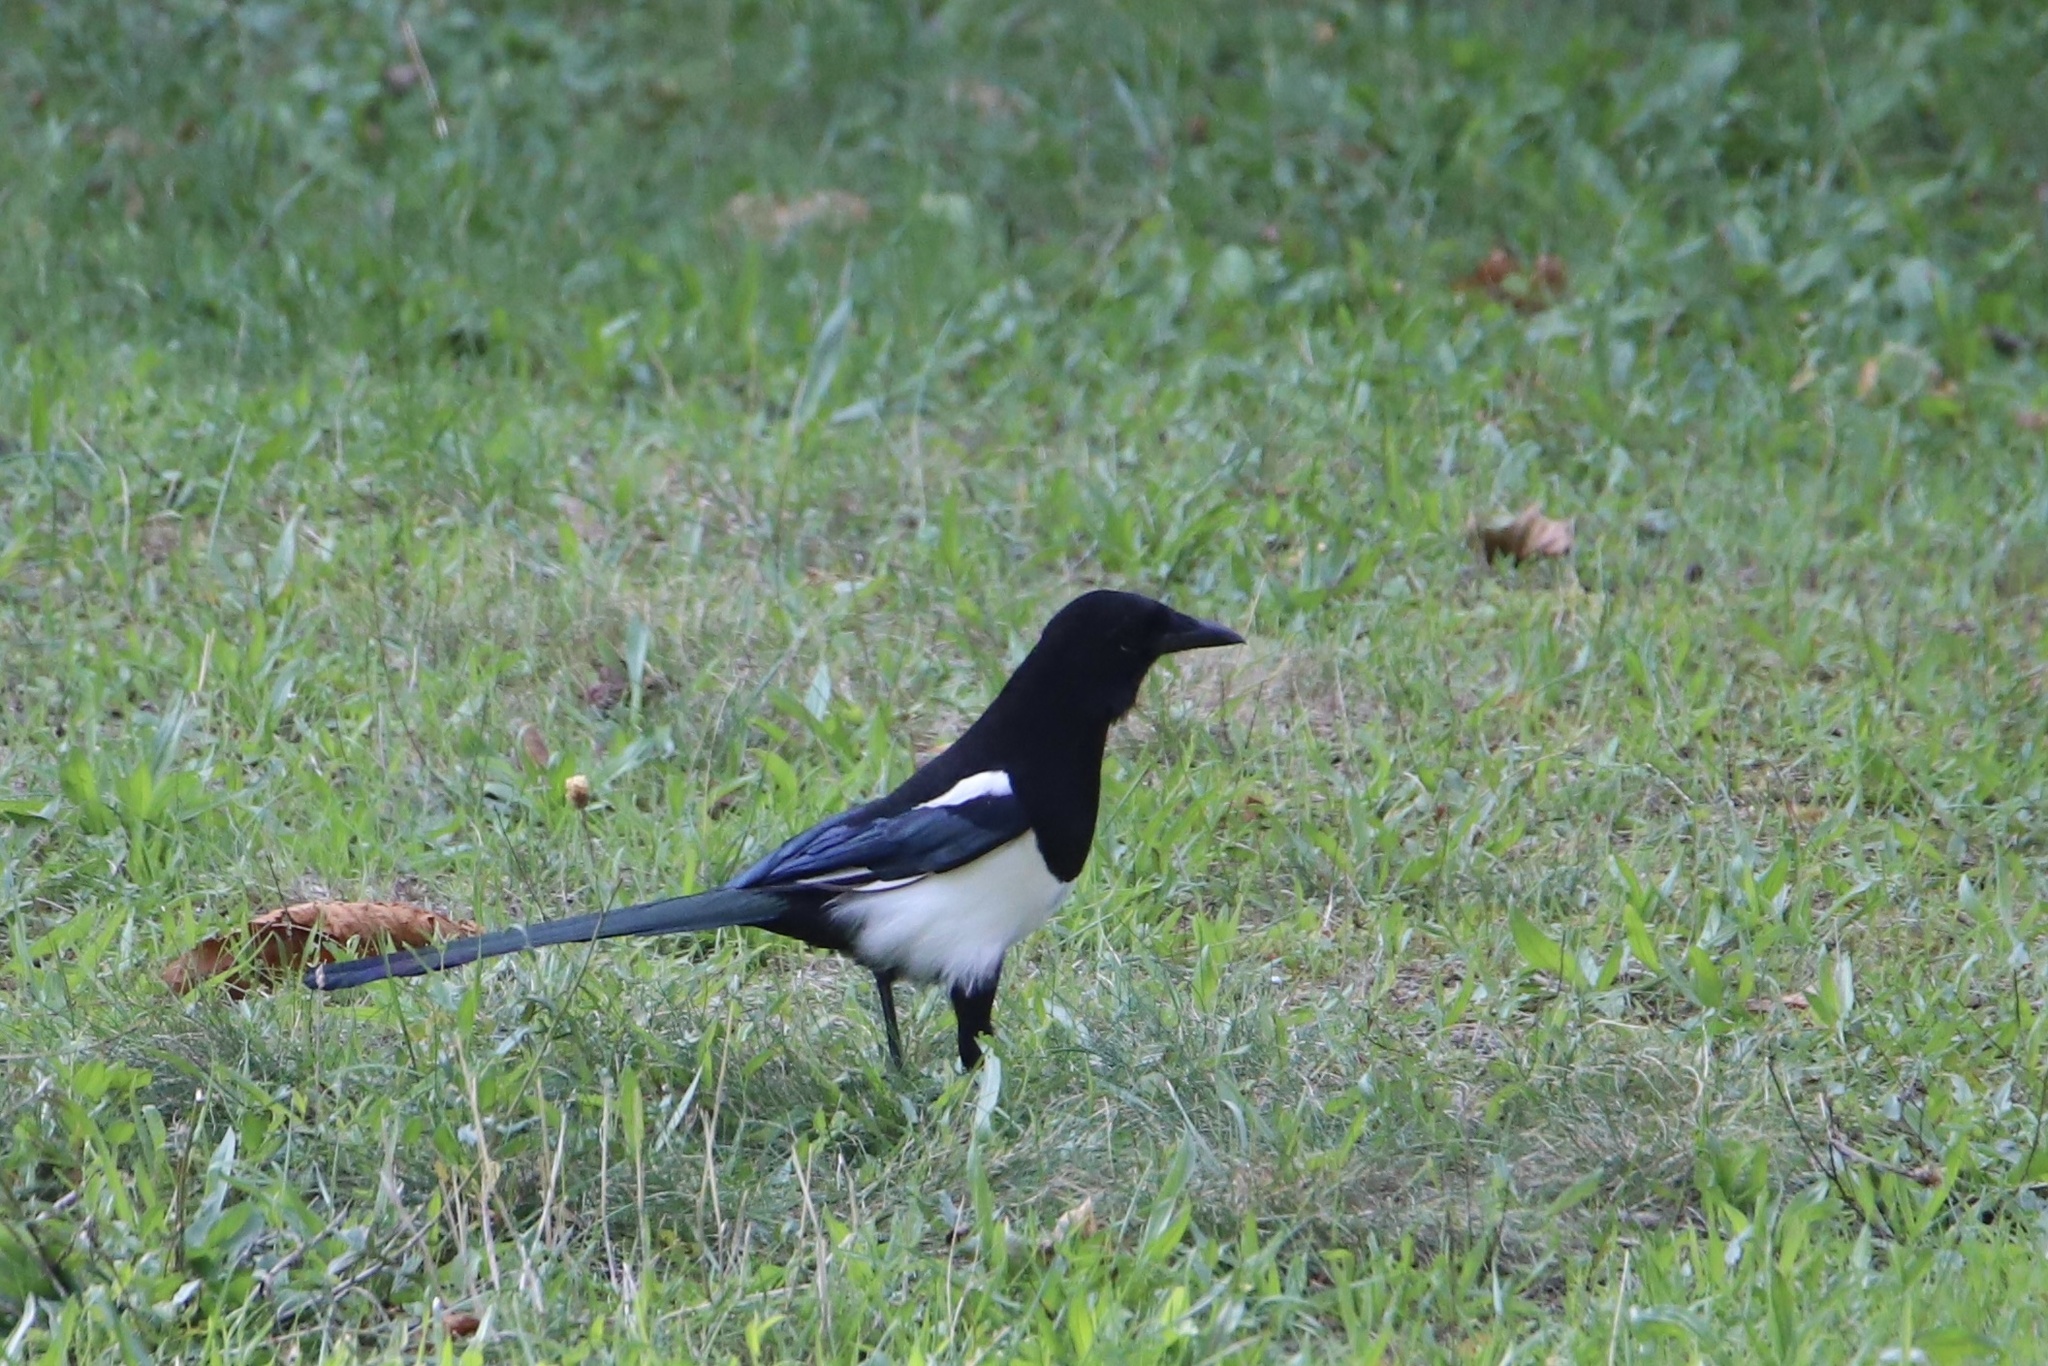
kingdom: Animalia
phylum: Chordata
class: Aves
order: Passeriformes
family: Corvidae
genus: Pica
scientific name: Pica pica
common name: Eurasian magpie
